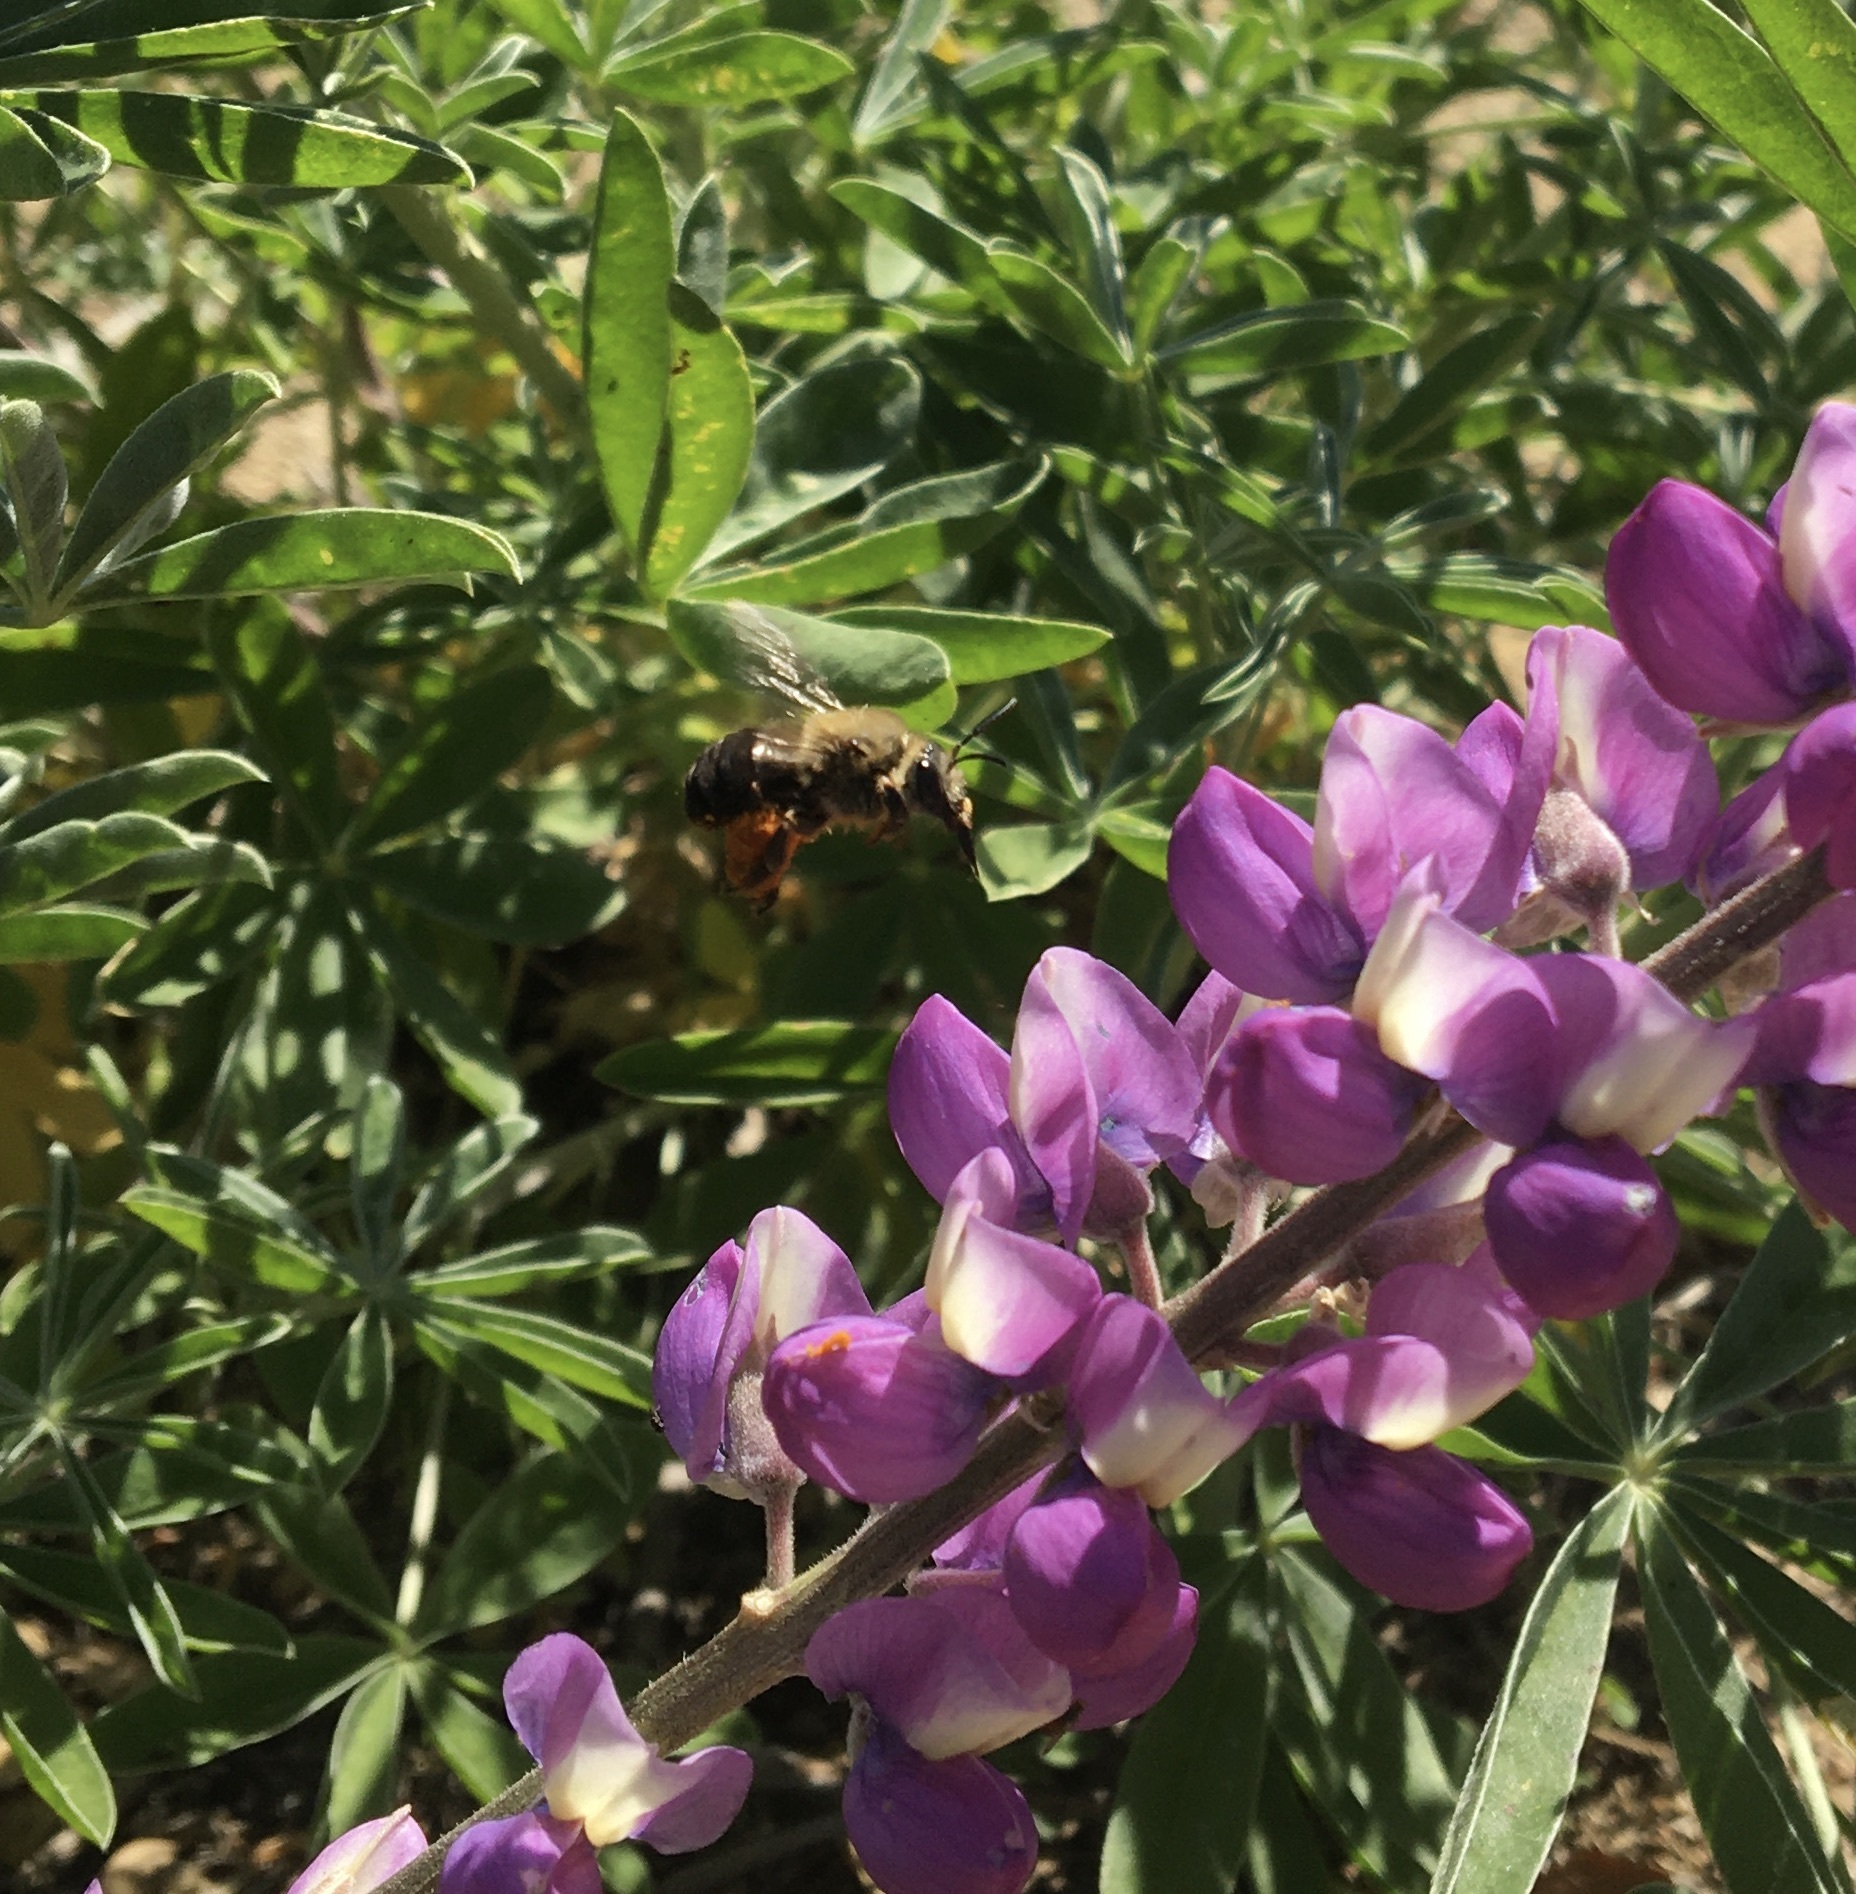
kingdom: Animalia
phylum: Arthropoda
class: Insecta
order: Hymenoptera
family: Apidae
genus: Eucera
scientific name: Eucera frater
